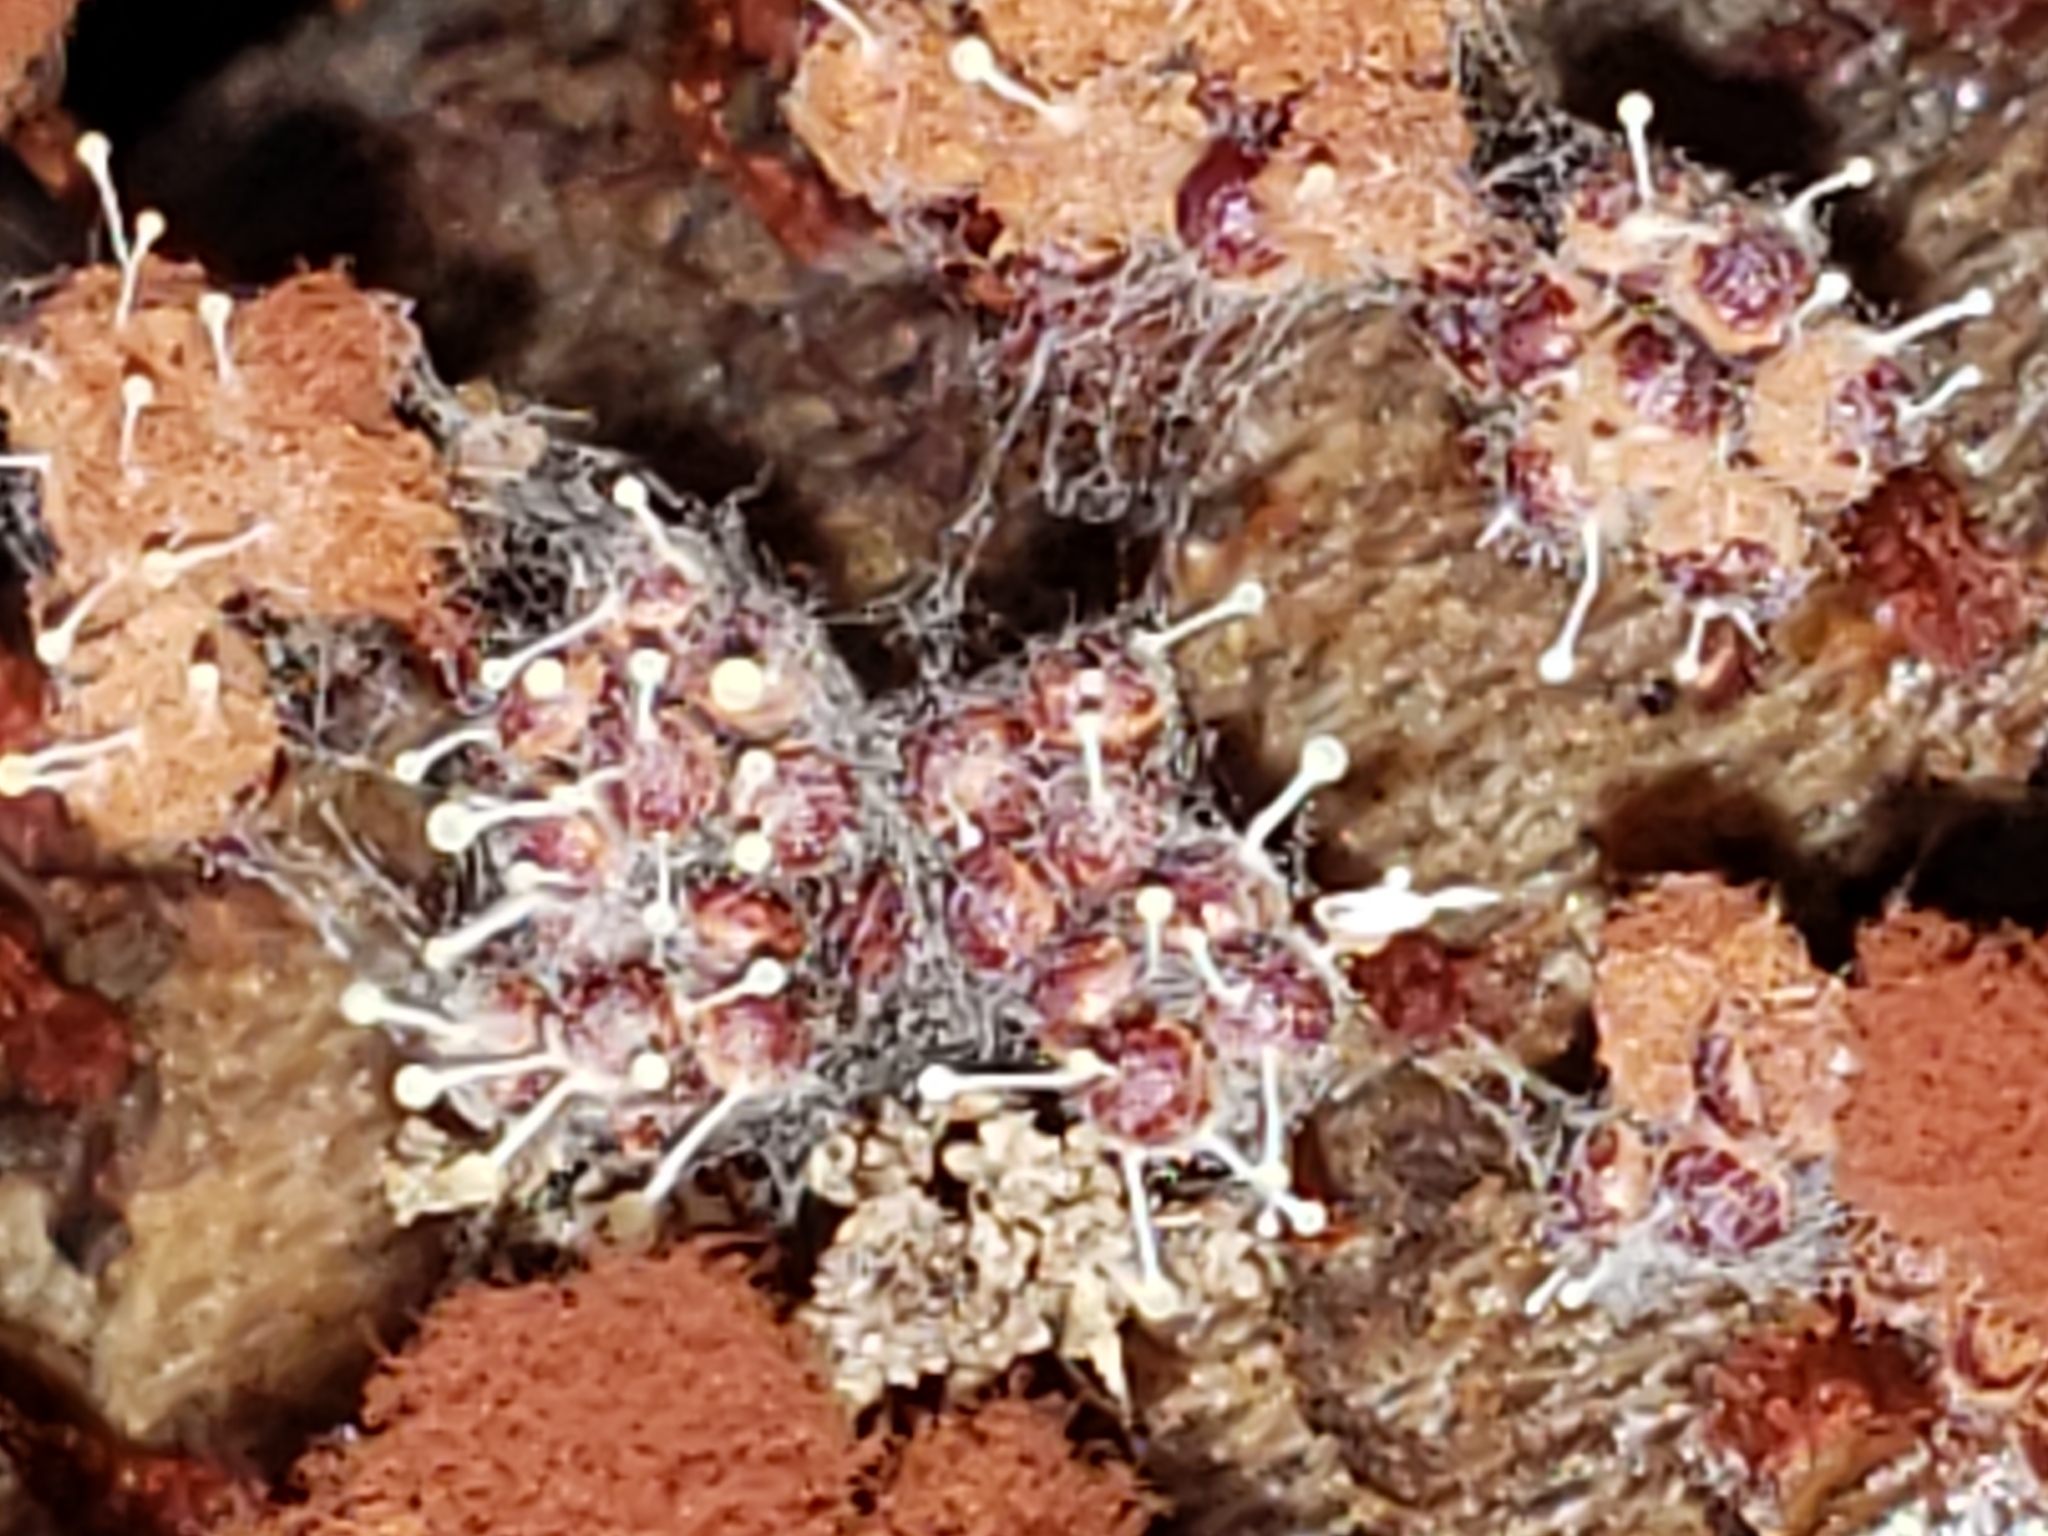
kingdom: Fungi
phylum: Ascomycota
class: Sordariomycetes
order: Hypocreales
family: Ophiocordycipitaceae
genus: Polycephalomyces
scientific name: Polycephalomyces tomentosus
